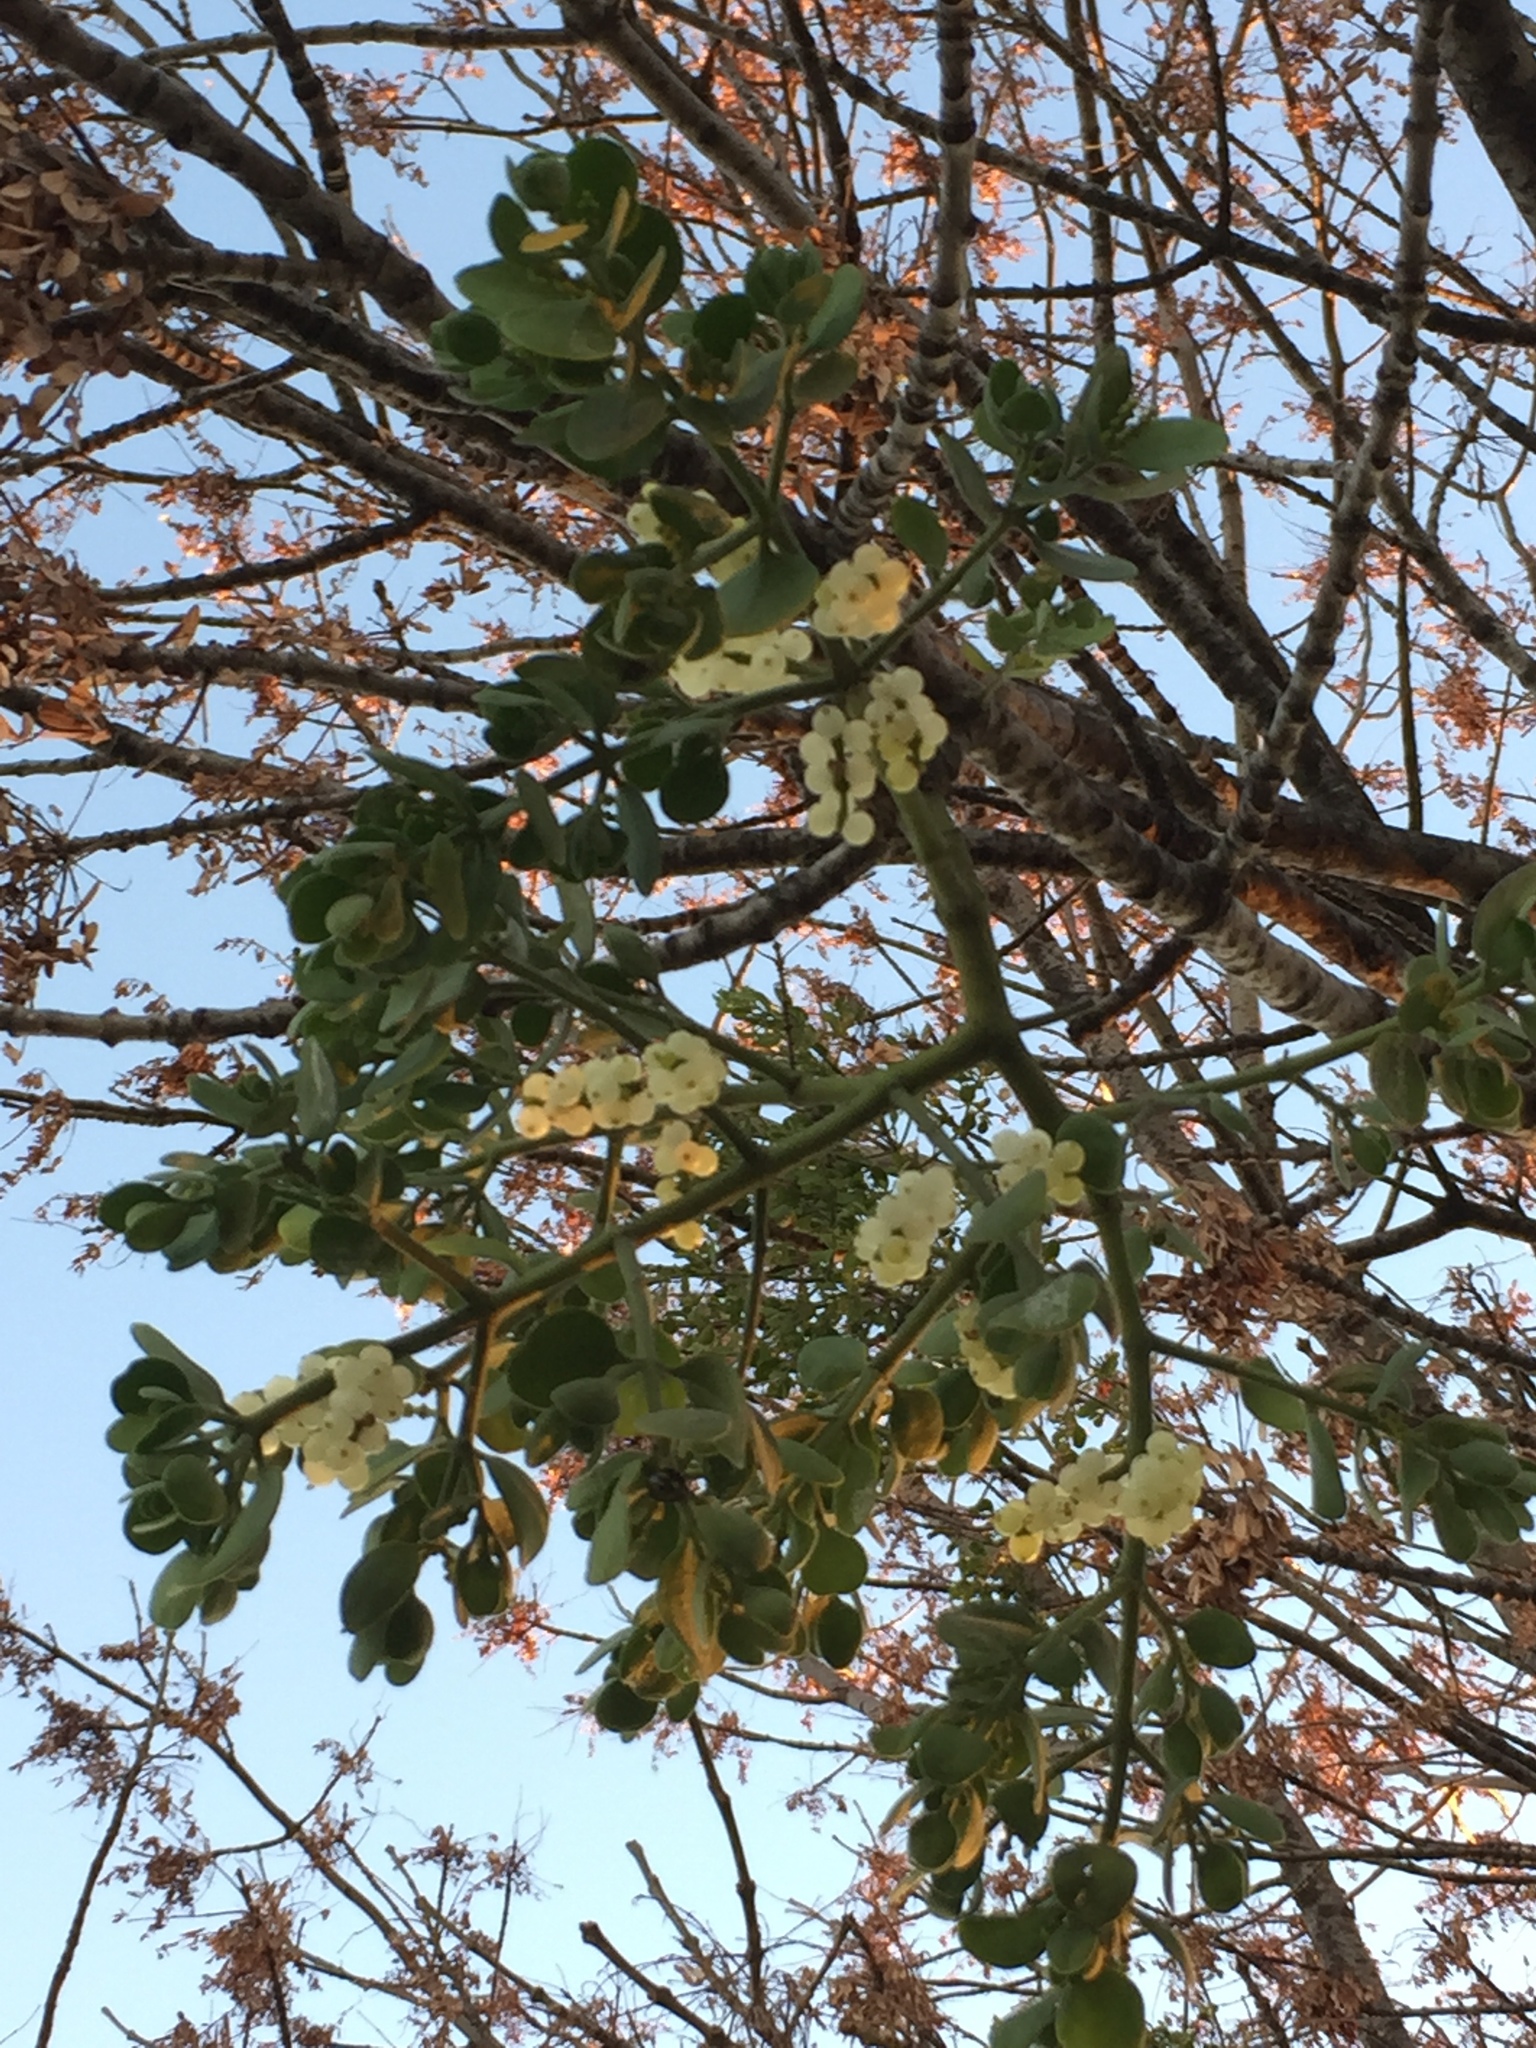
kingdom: Plantae
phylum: Tracheophyta
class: Magnoliopsida
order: Santalales
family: Viscaceae
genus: Phoradendron
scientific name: Phoradendron leucarpum
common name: Pacific mistletoe
